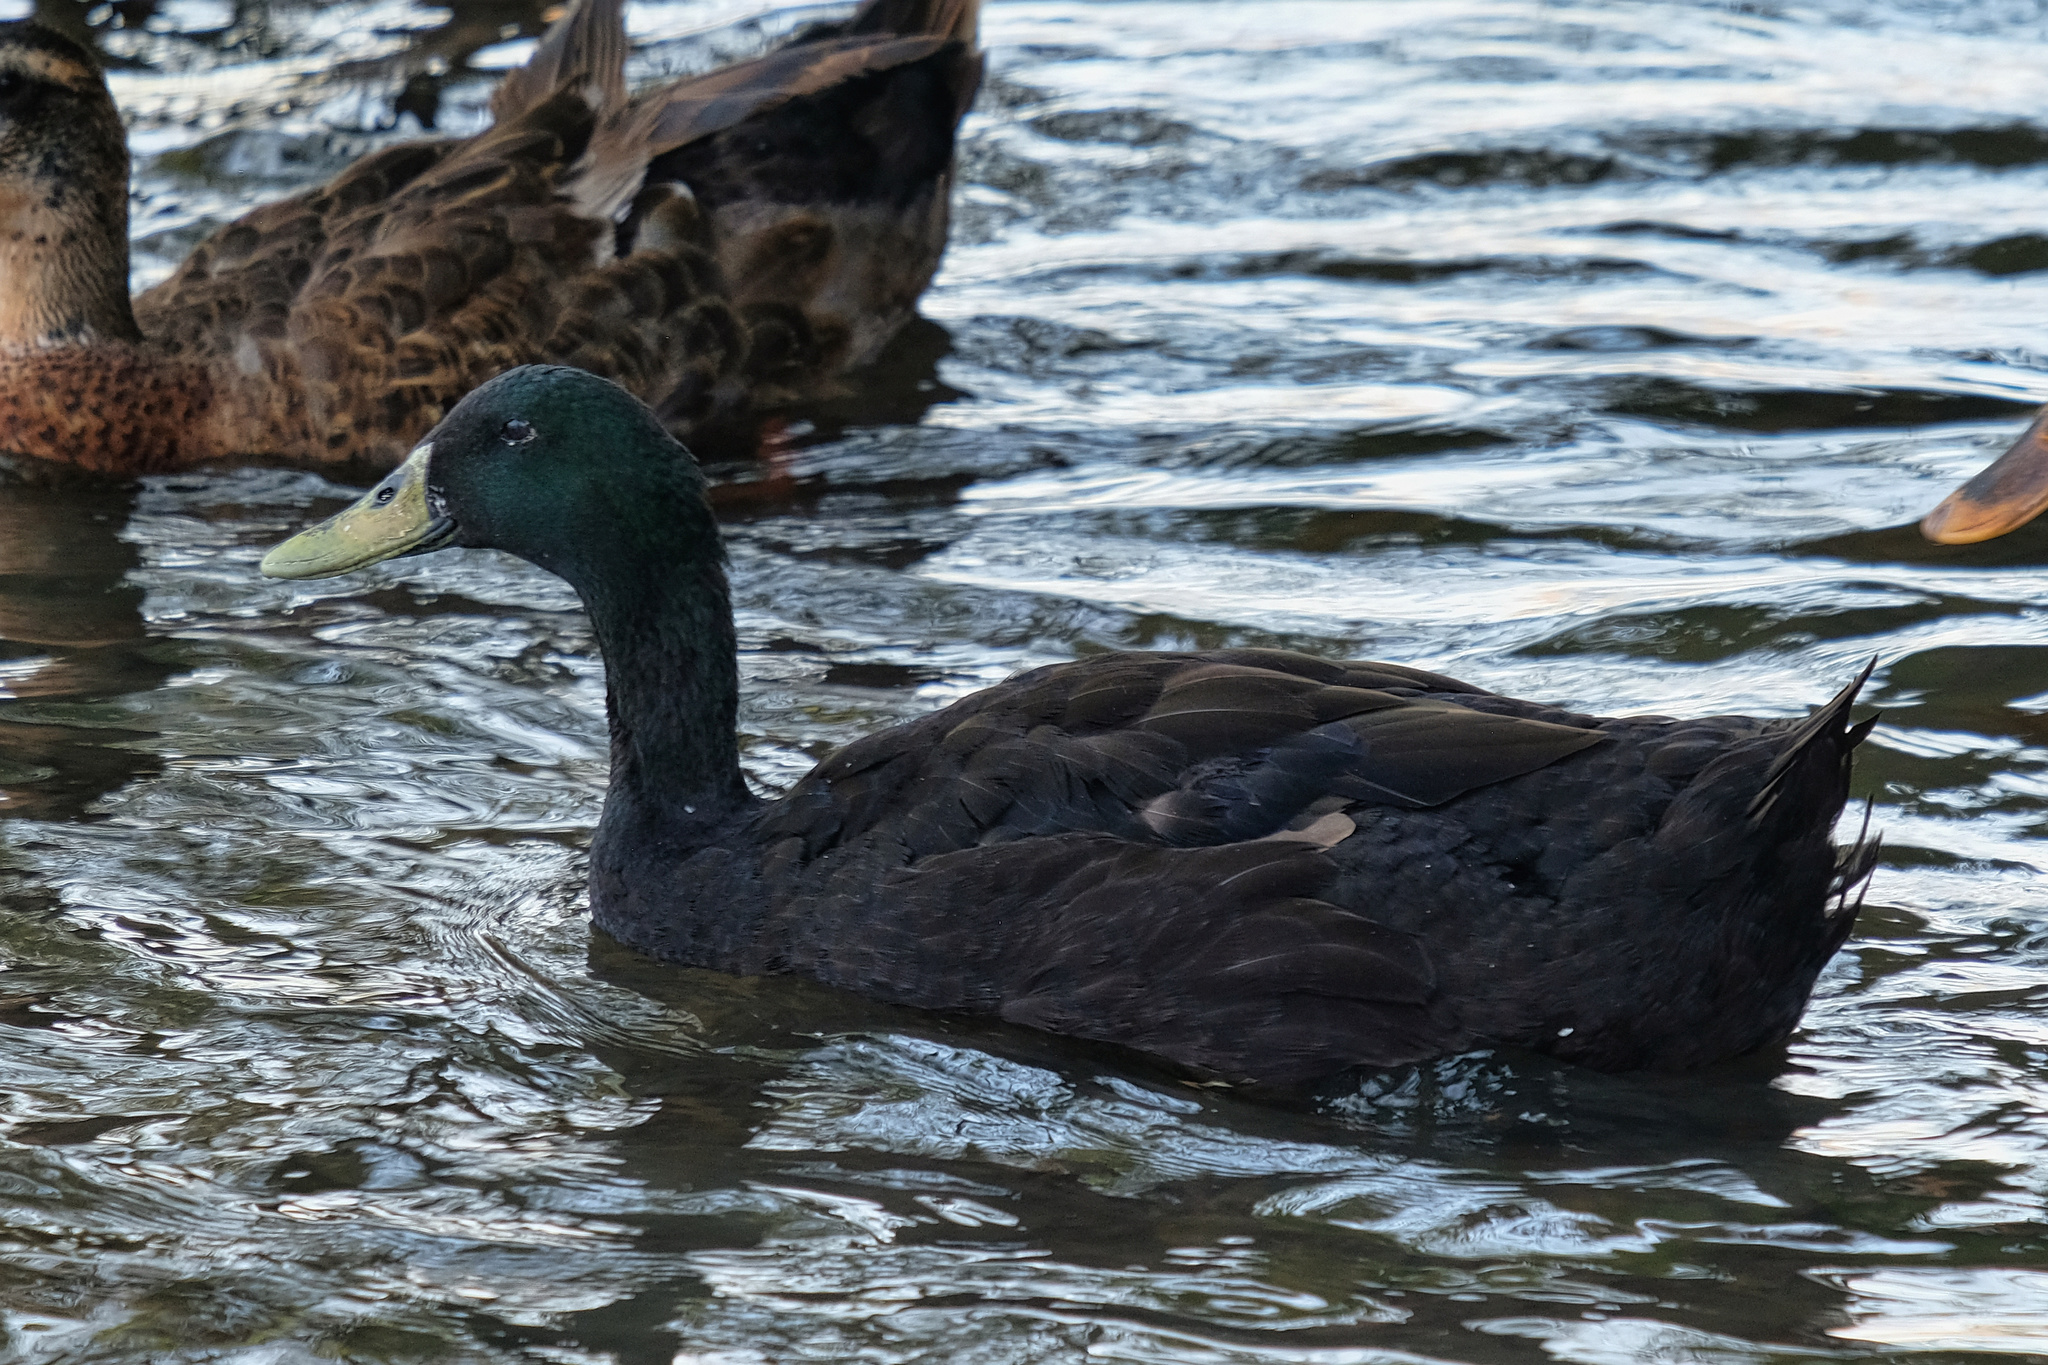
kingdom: Animalia
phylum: Chordata
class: Aves
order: Anseriformes
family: Anatidae
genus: Anas
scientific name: Anas platyrhynchos
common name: Mallard
